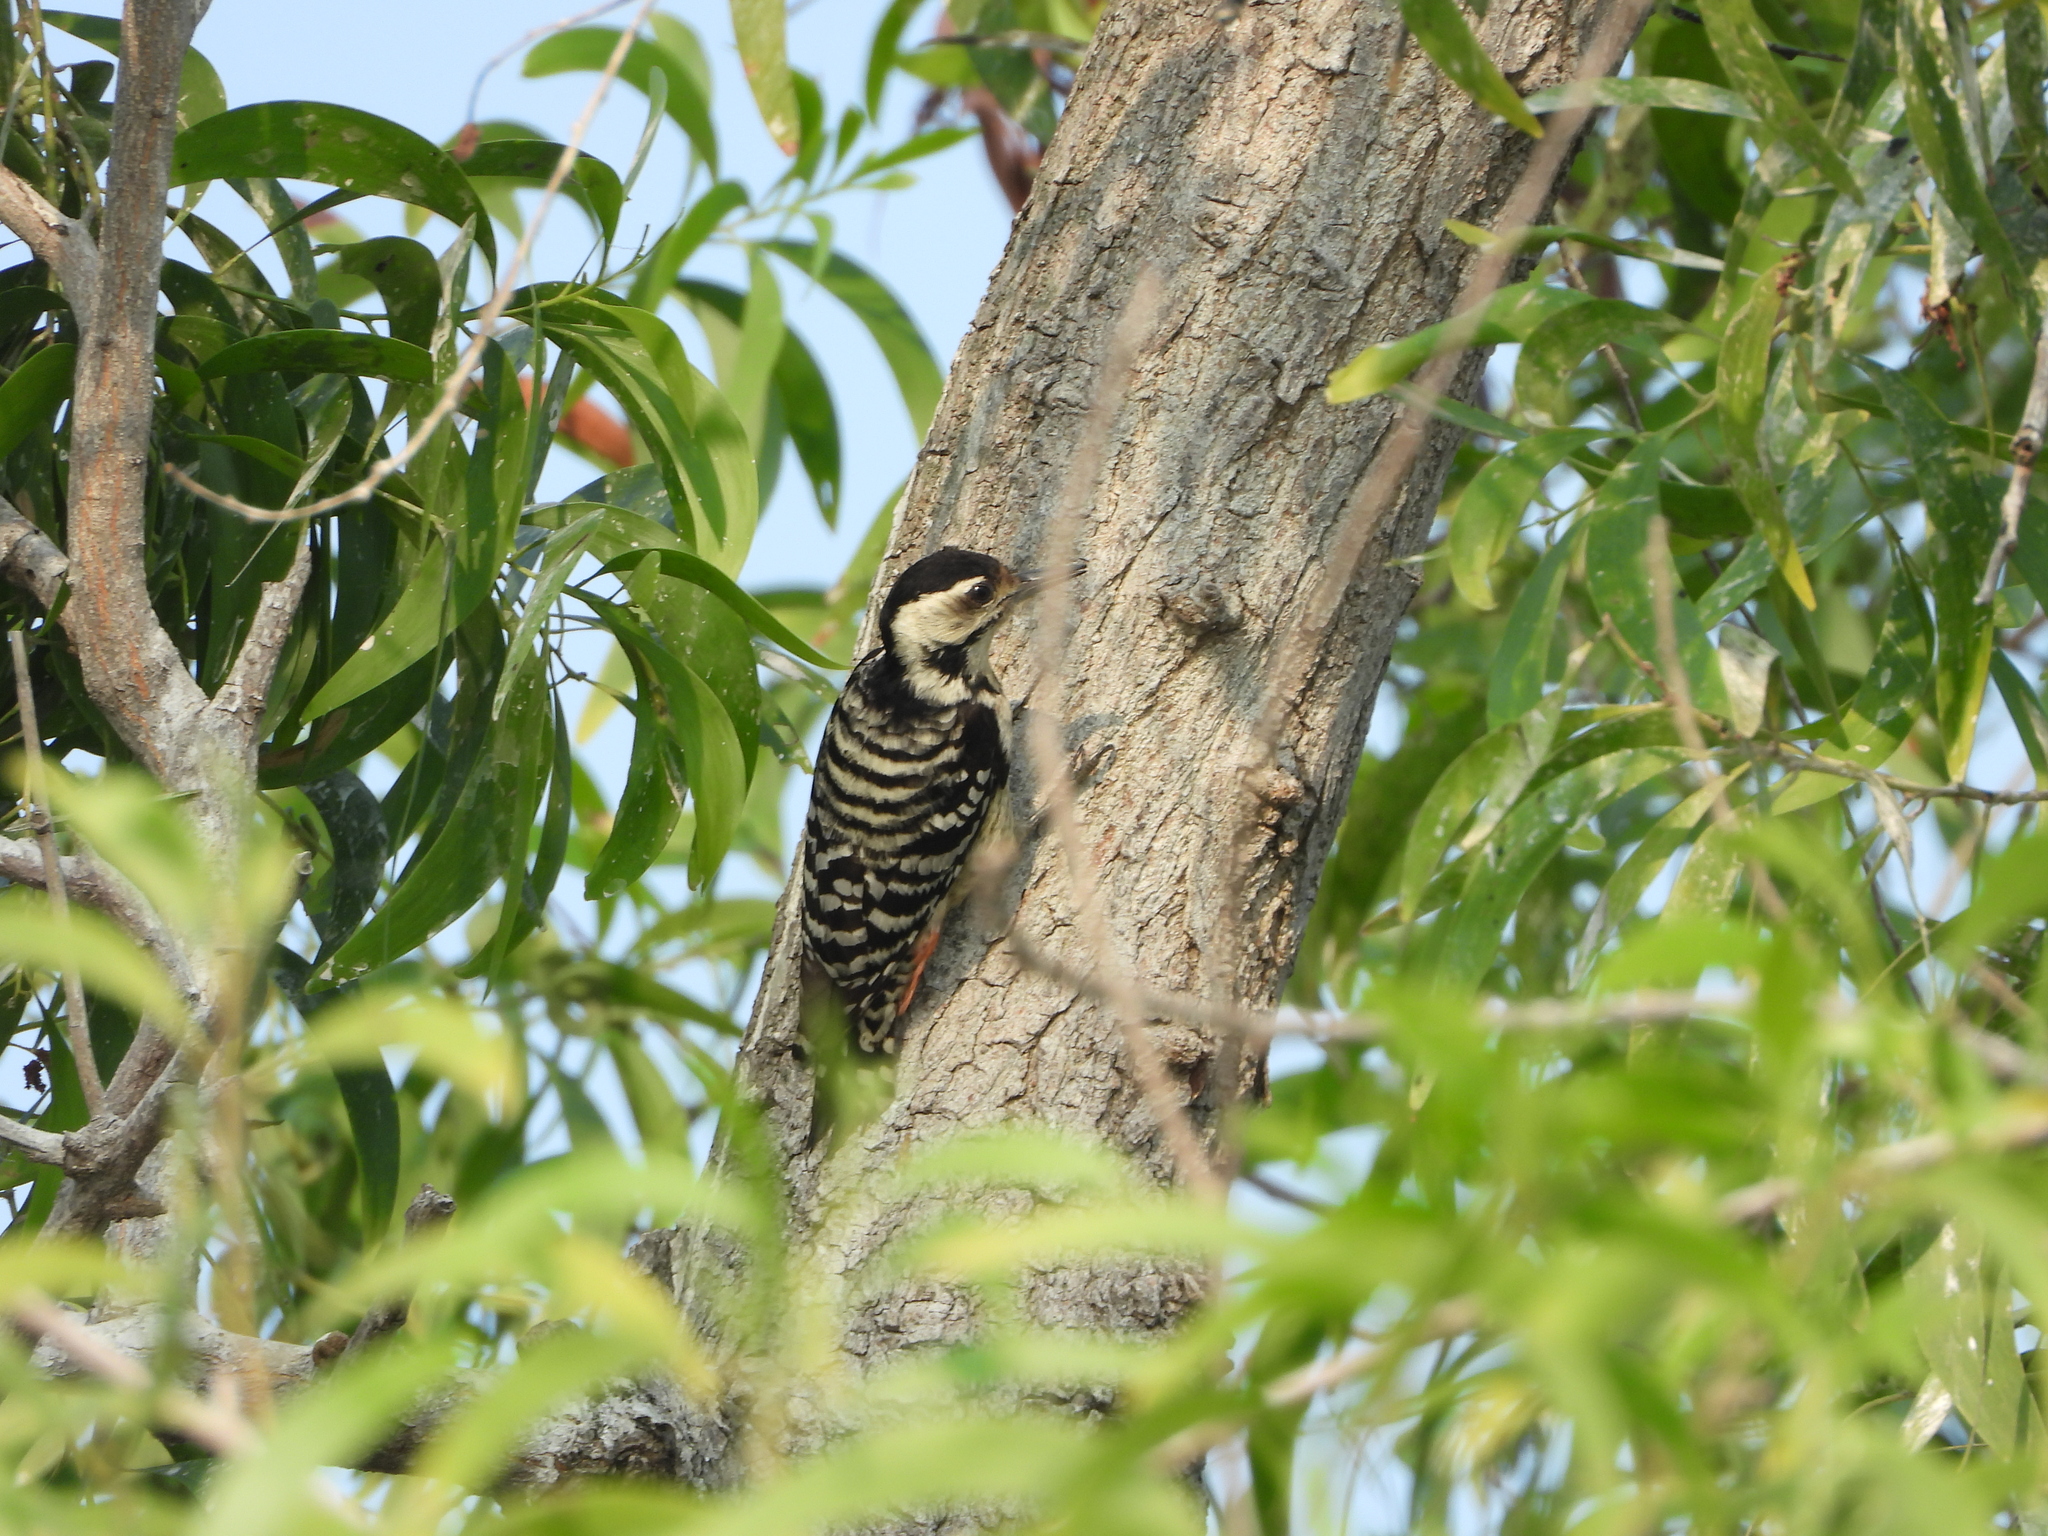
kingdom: Animalia
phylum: Chordata
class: Aves
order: Piciformes
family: Picidae
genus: Dendrocopos
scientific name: Dendrocopos analis
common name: Freckle-breasted woodpecker
